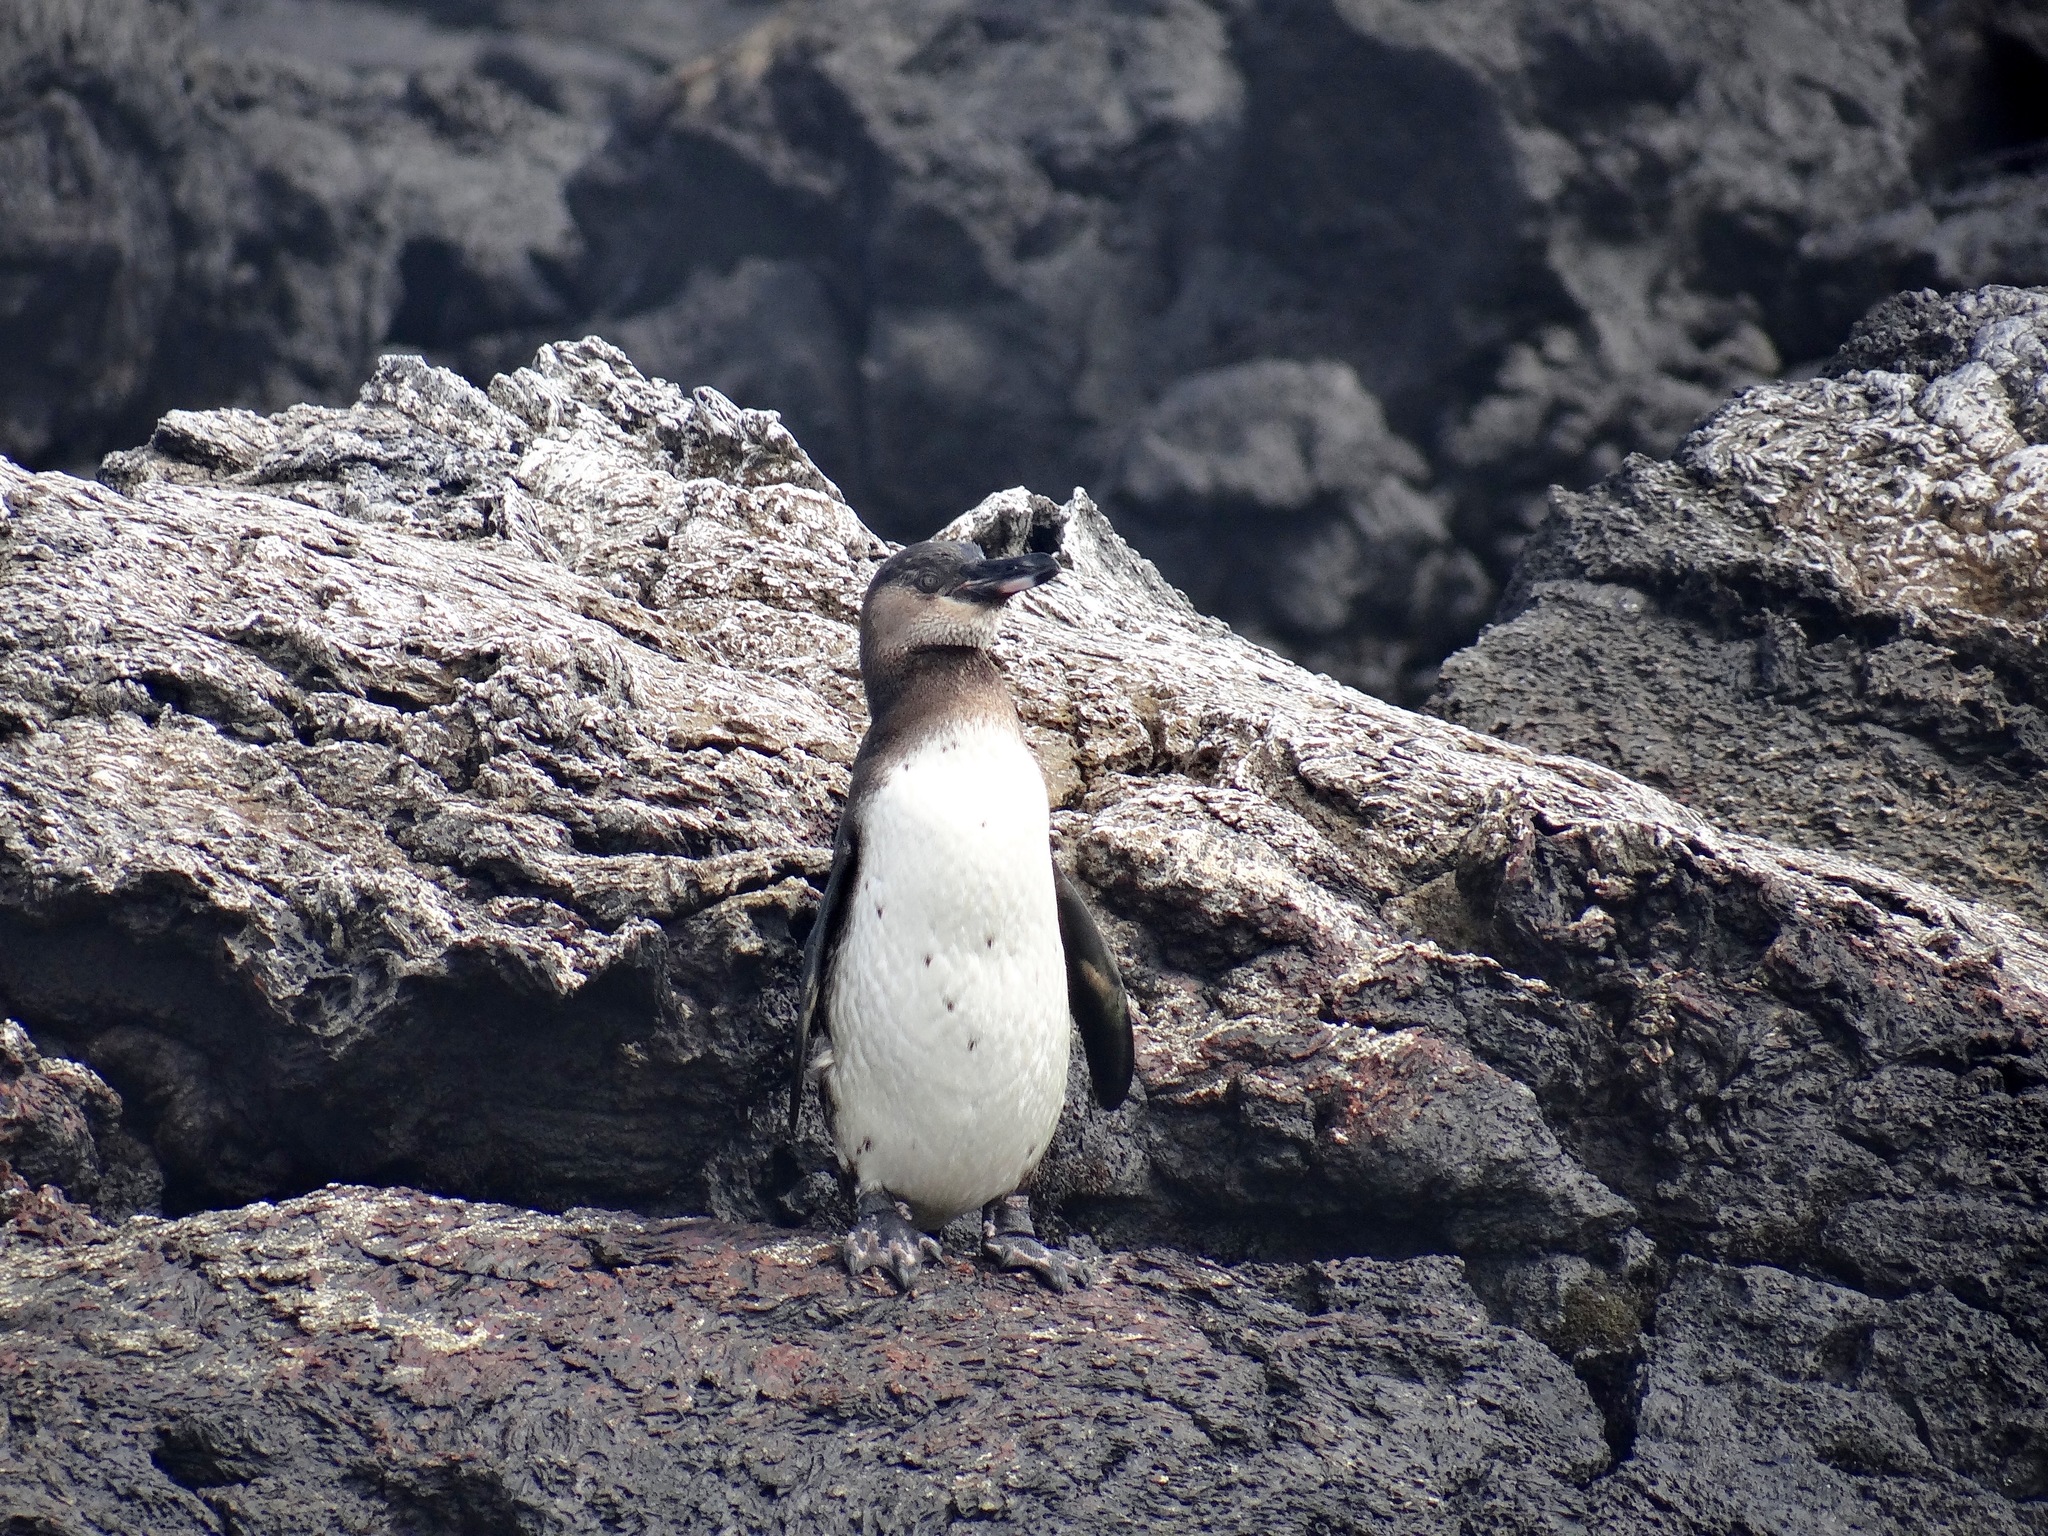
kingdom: Animalia
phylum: Chordata
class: Aves
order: Sphenisciformes
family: Spheniscidae
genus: Spheniscus
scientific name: Spheniscus mendiculus
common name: Galapagos penguin
